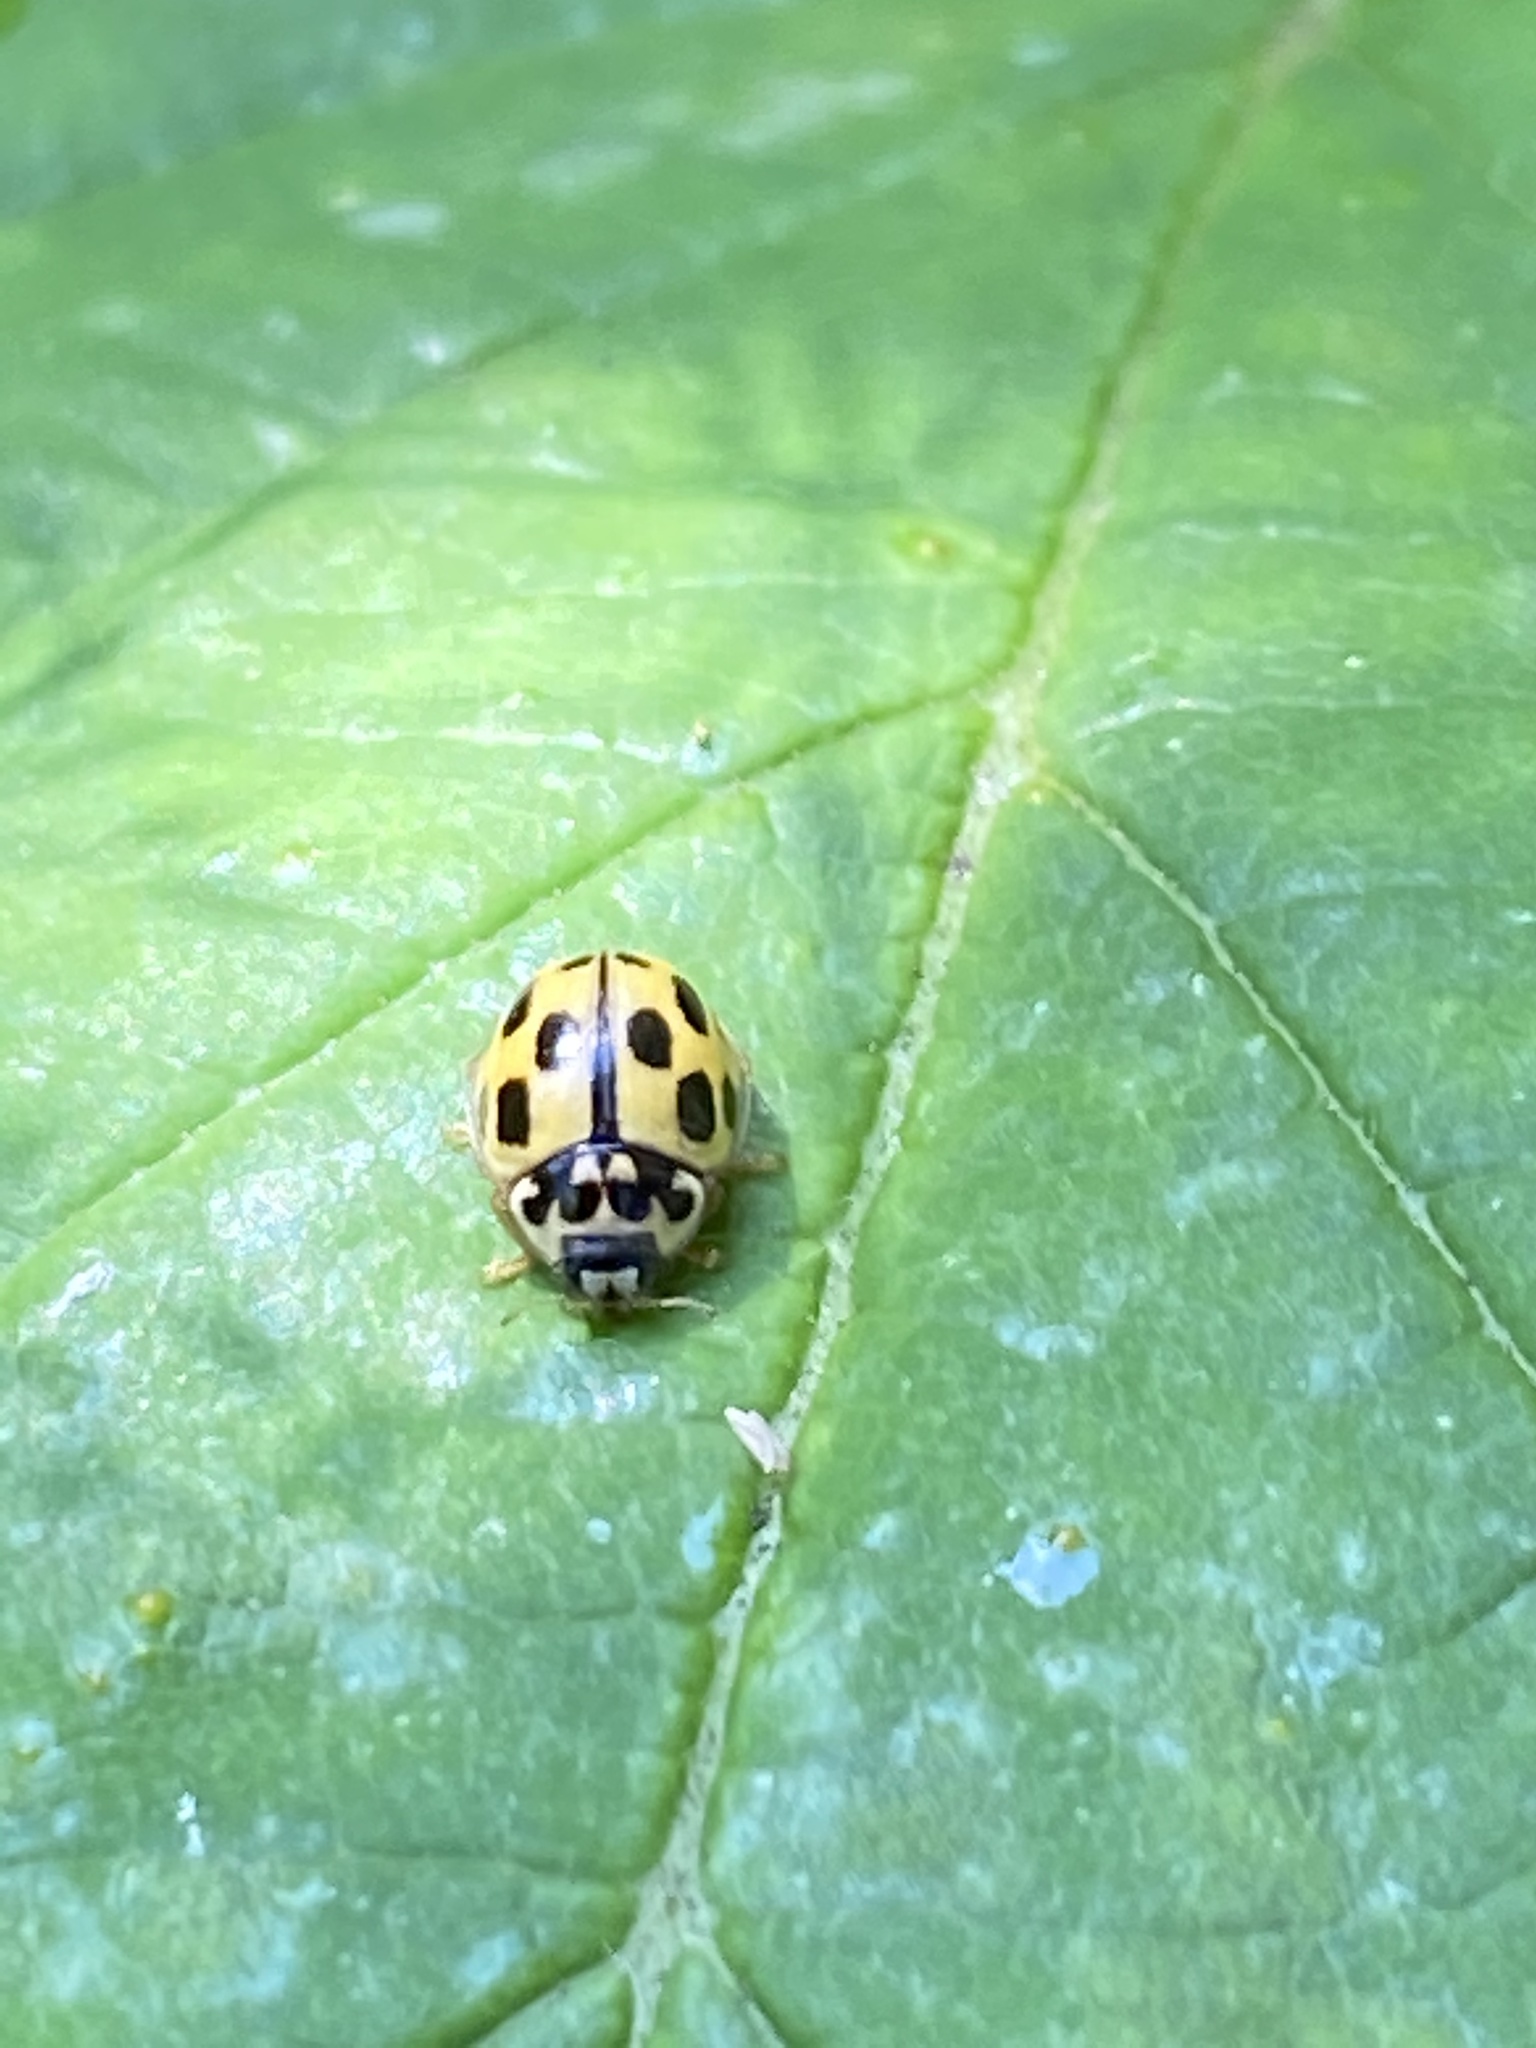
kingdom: Animalia
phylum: Arthropoda
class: Insecta
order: Coleoptera
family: Coccinellidae
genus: Propylaea
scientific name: Propylaea quatuordecimpunctata
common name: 14-spotted ladybird beetle
